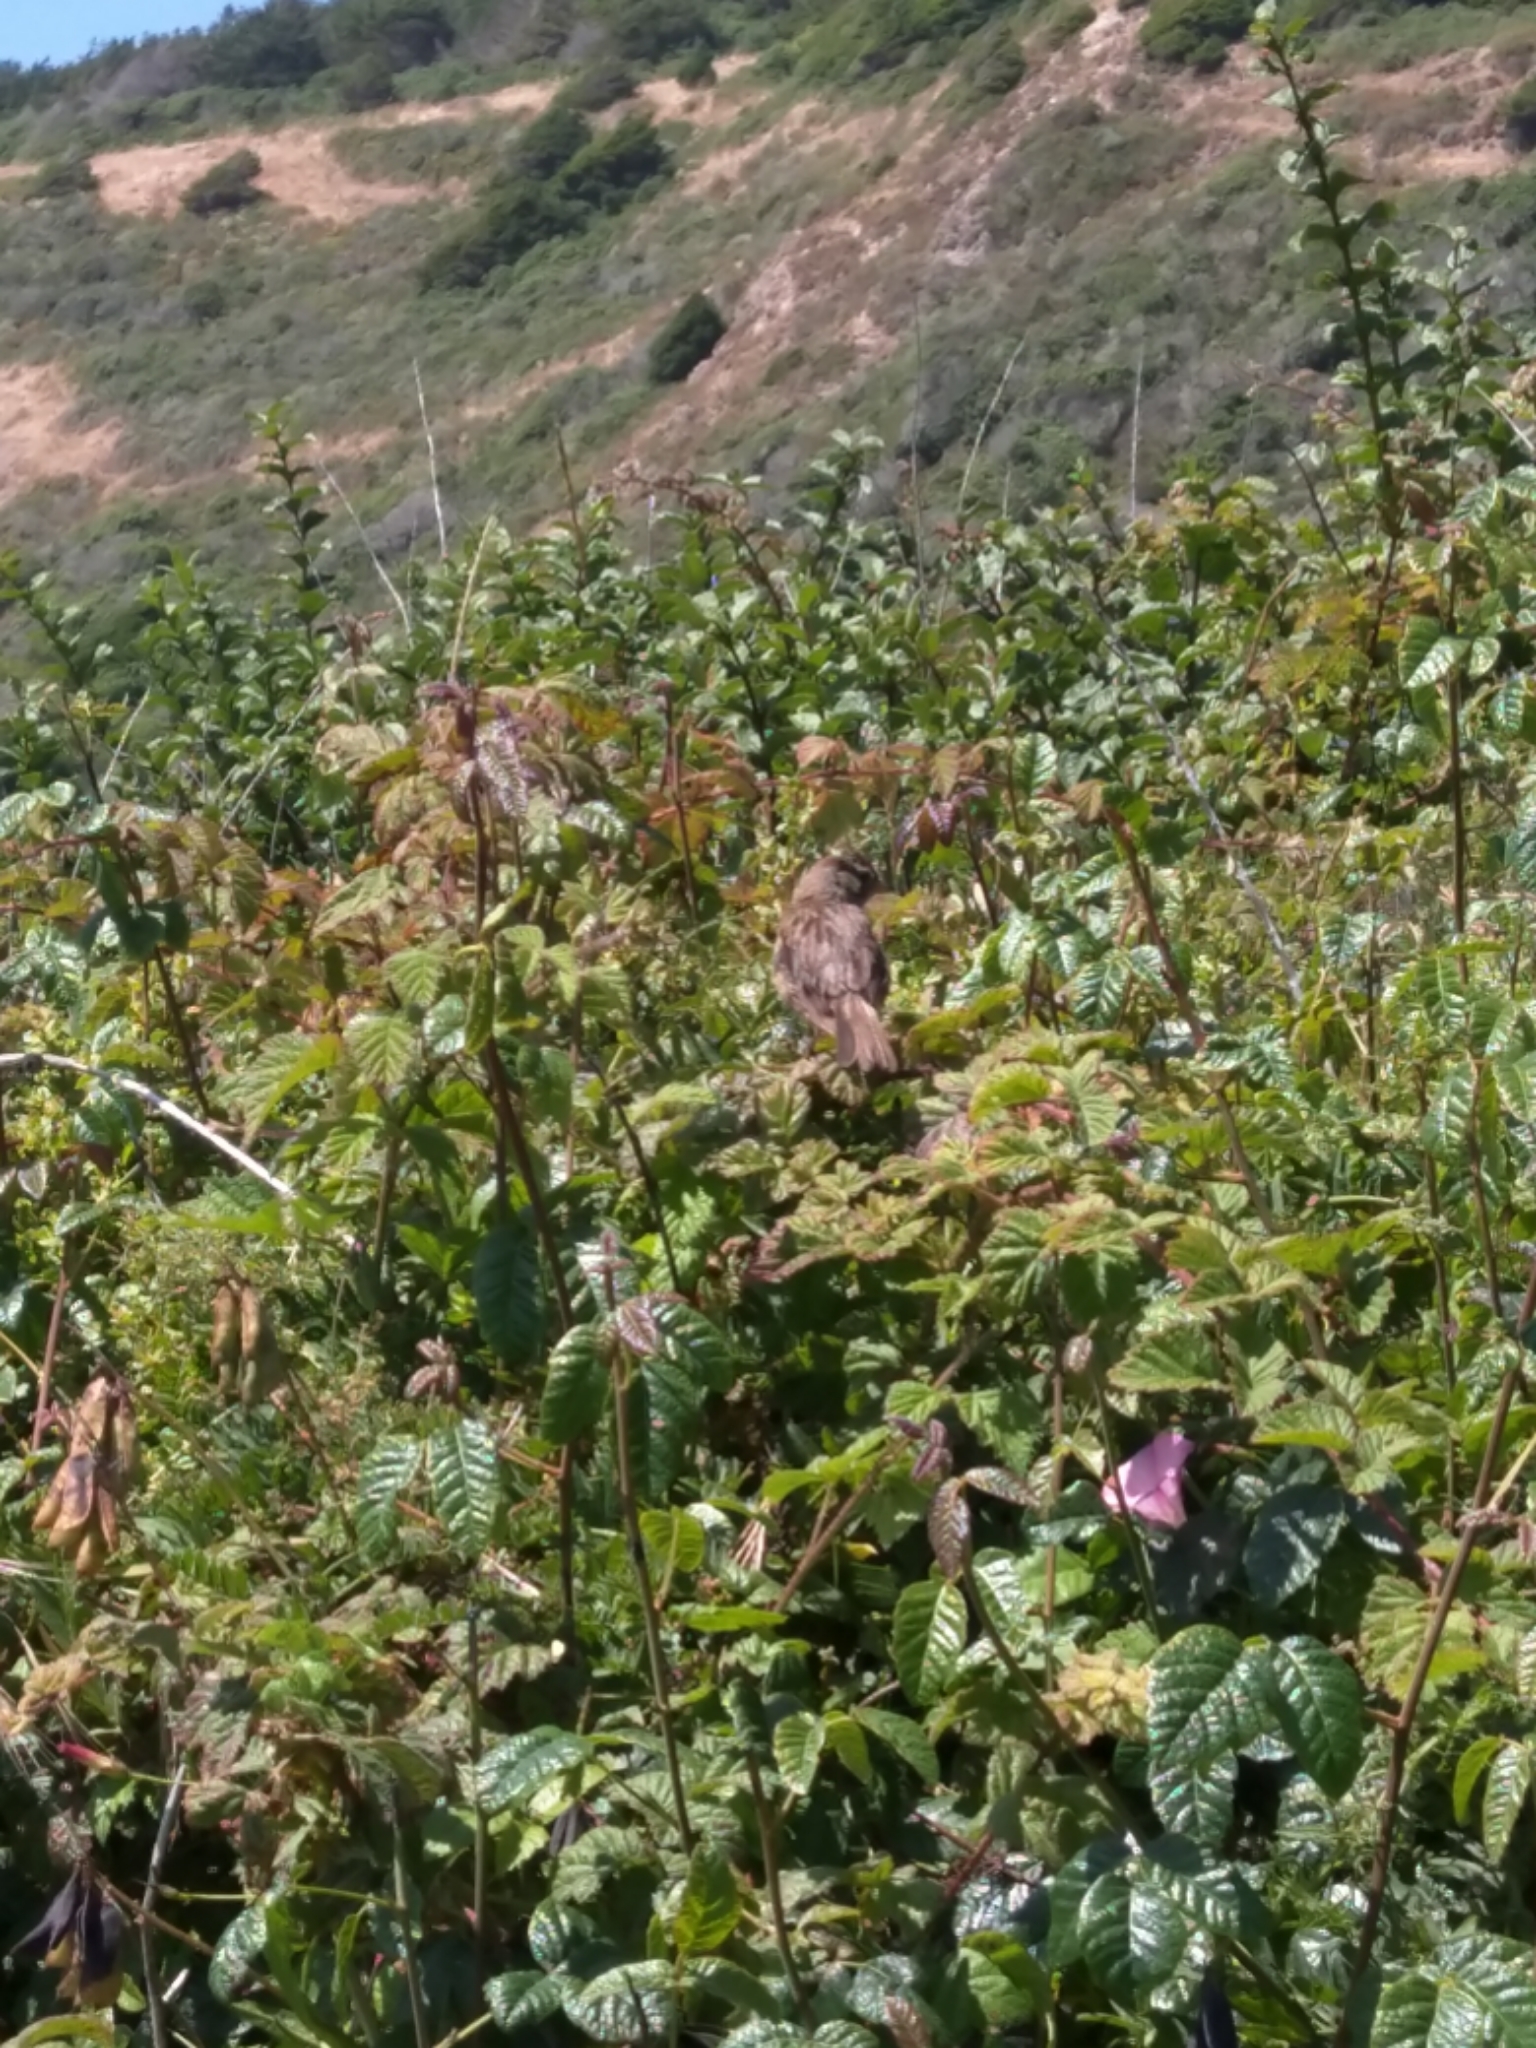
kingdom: Animalia
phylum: Chordata
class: Aves
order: Passeriformes
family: Passerellidae
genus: Zonotrichia
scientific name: Zonotrichia leucophrys
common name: White-crowned sparrow
